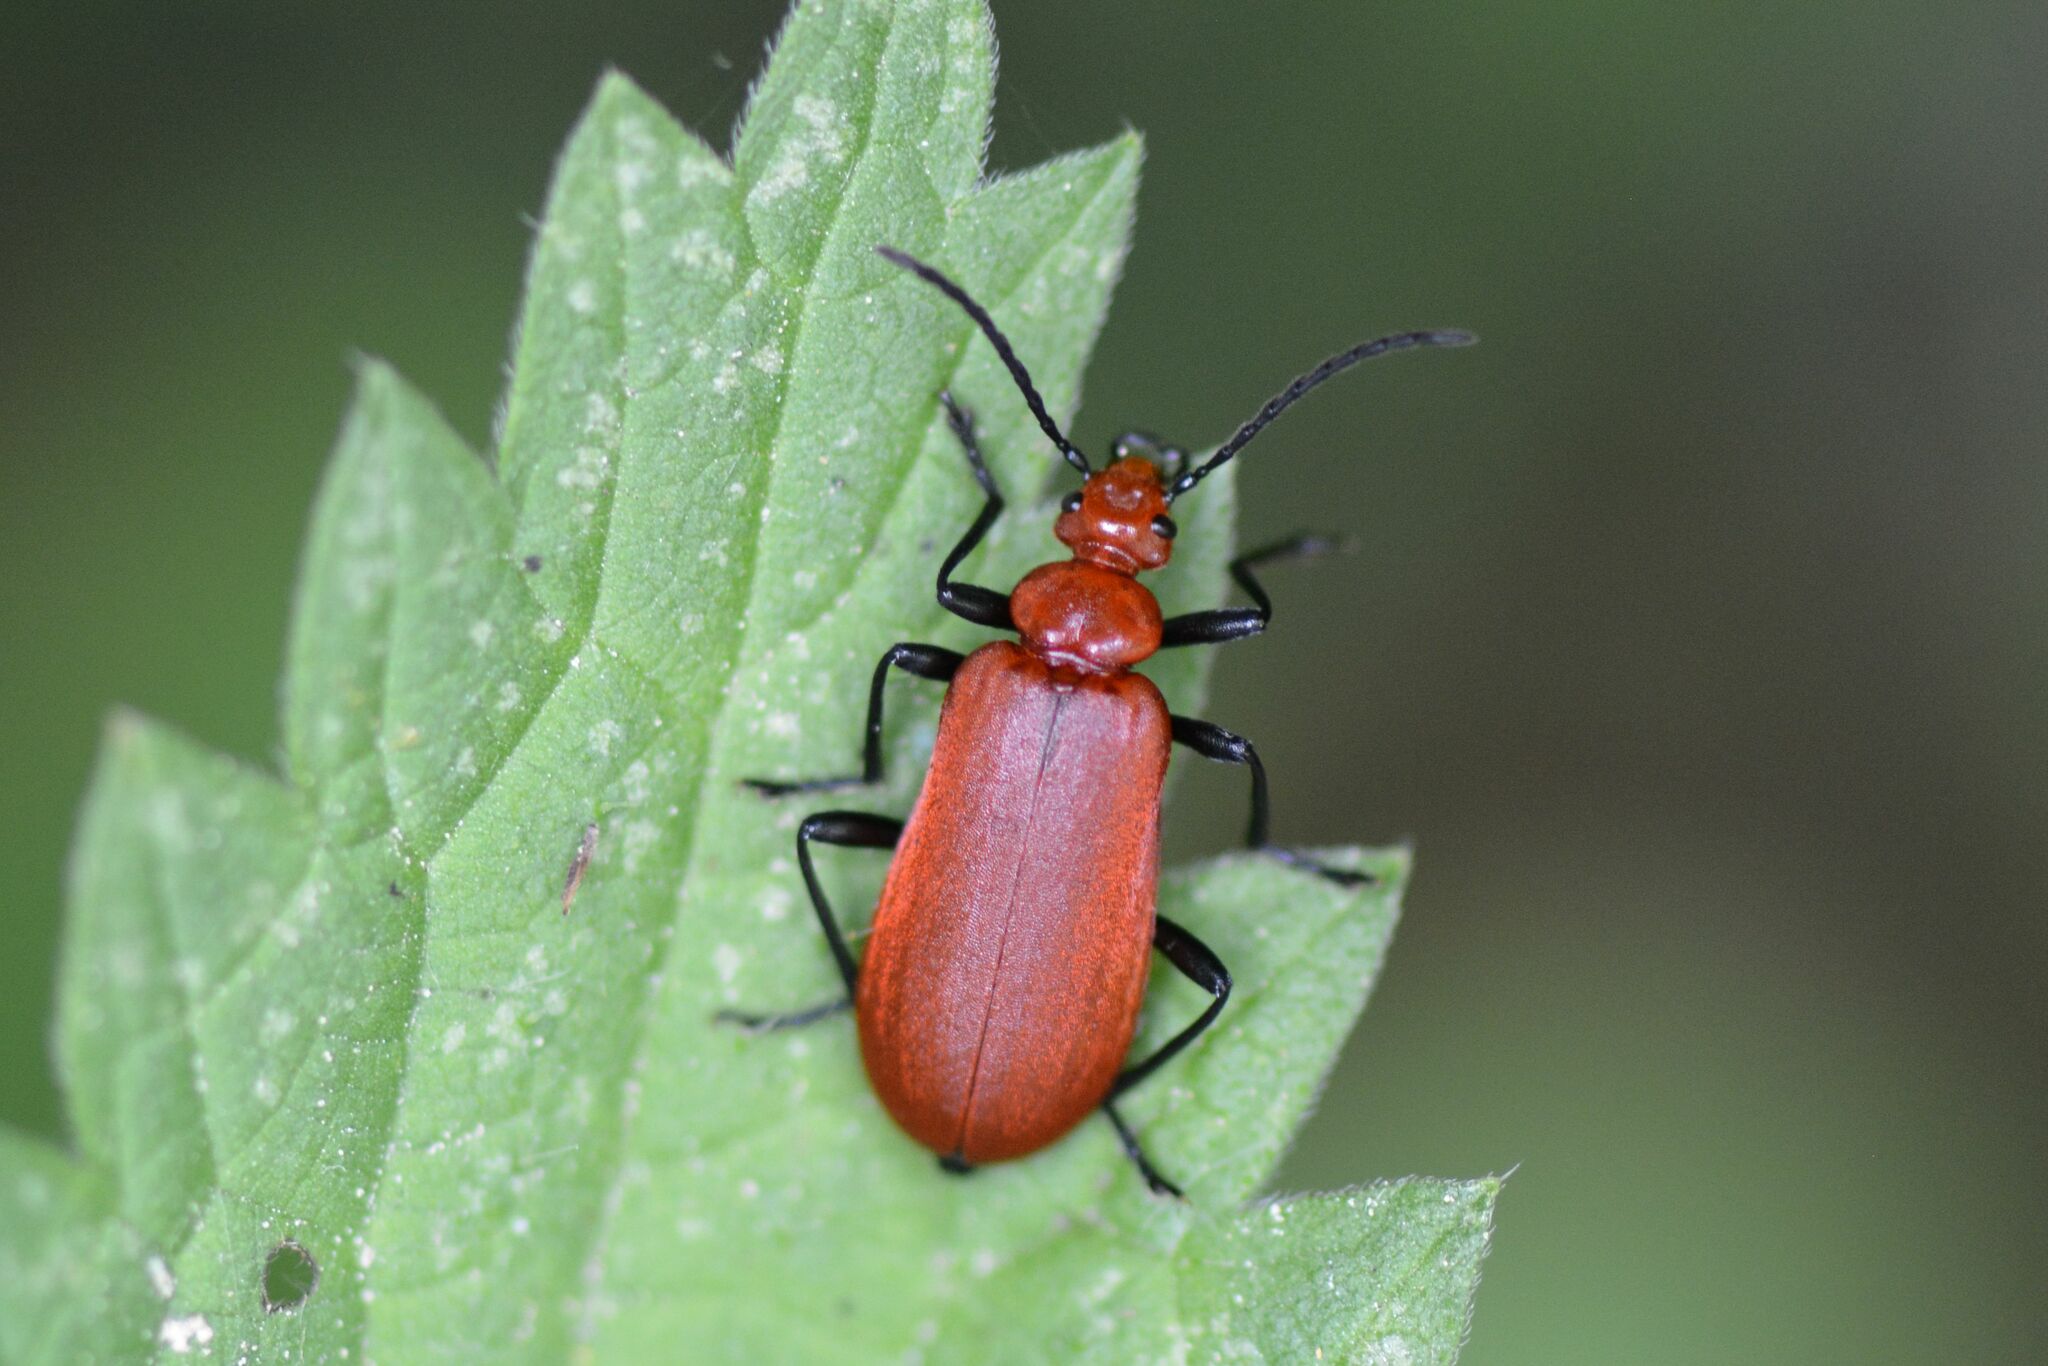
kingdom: Animalia
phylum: Arthropoda
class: Insecta
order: Coleoptera
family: Pyrochroidae
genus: Pyrochroa
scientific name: Pyrochroa serraticornis
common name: Red-headed cardinal beetle
